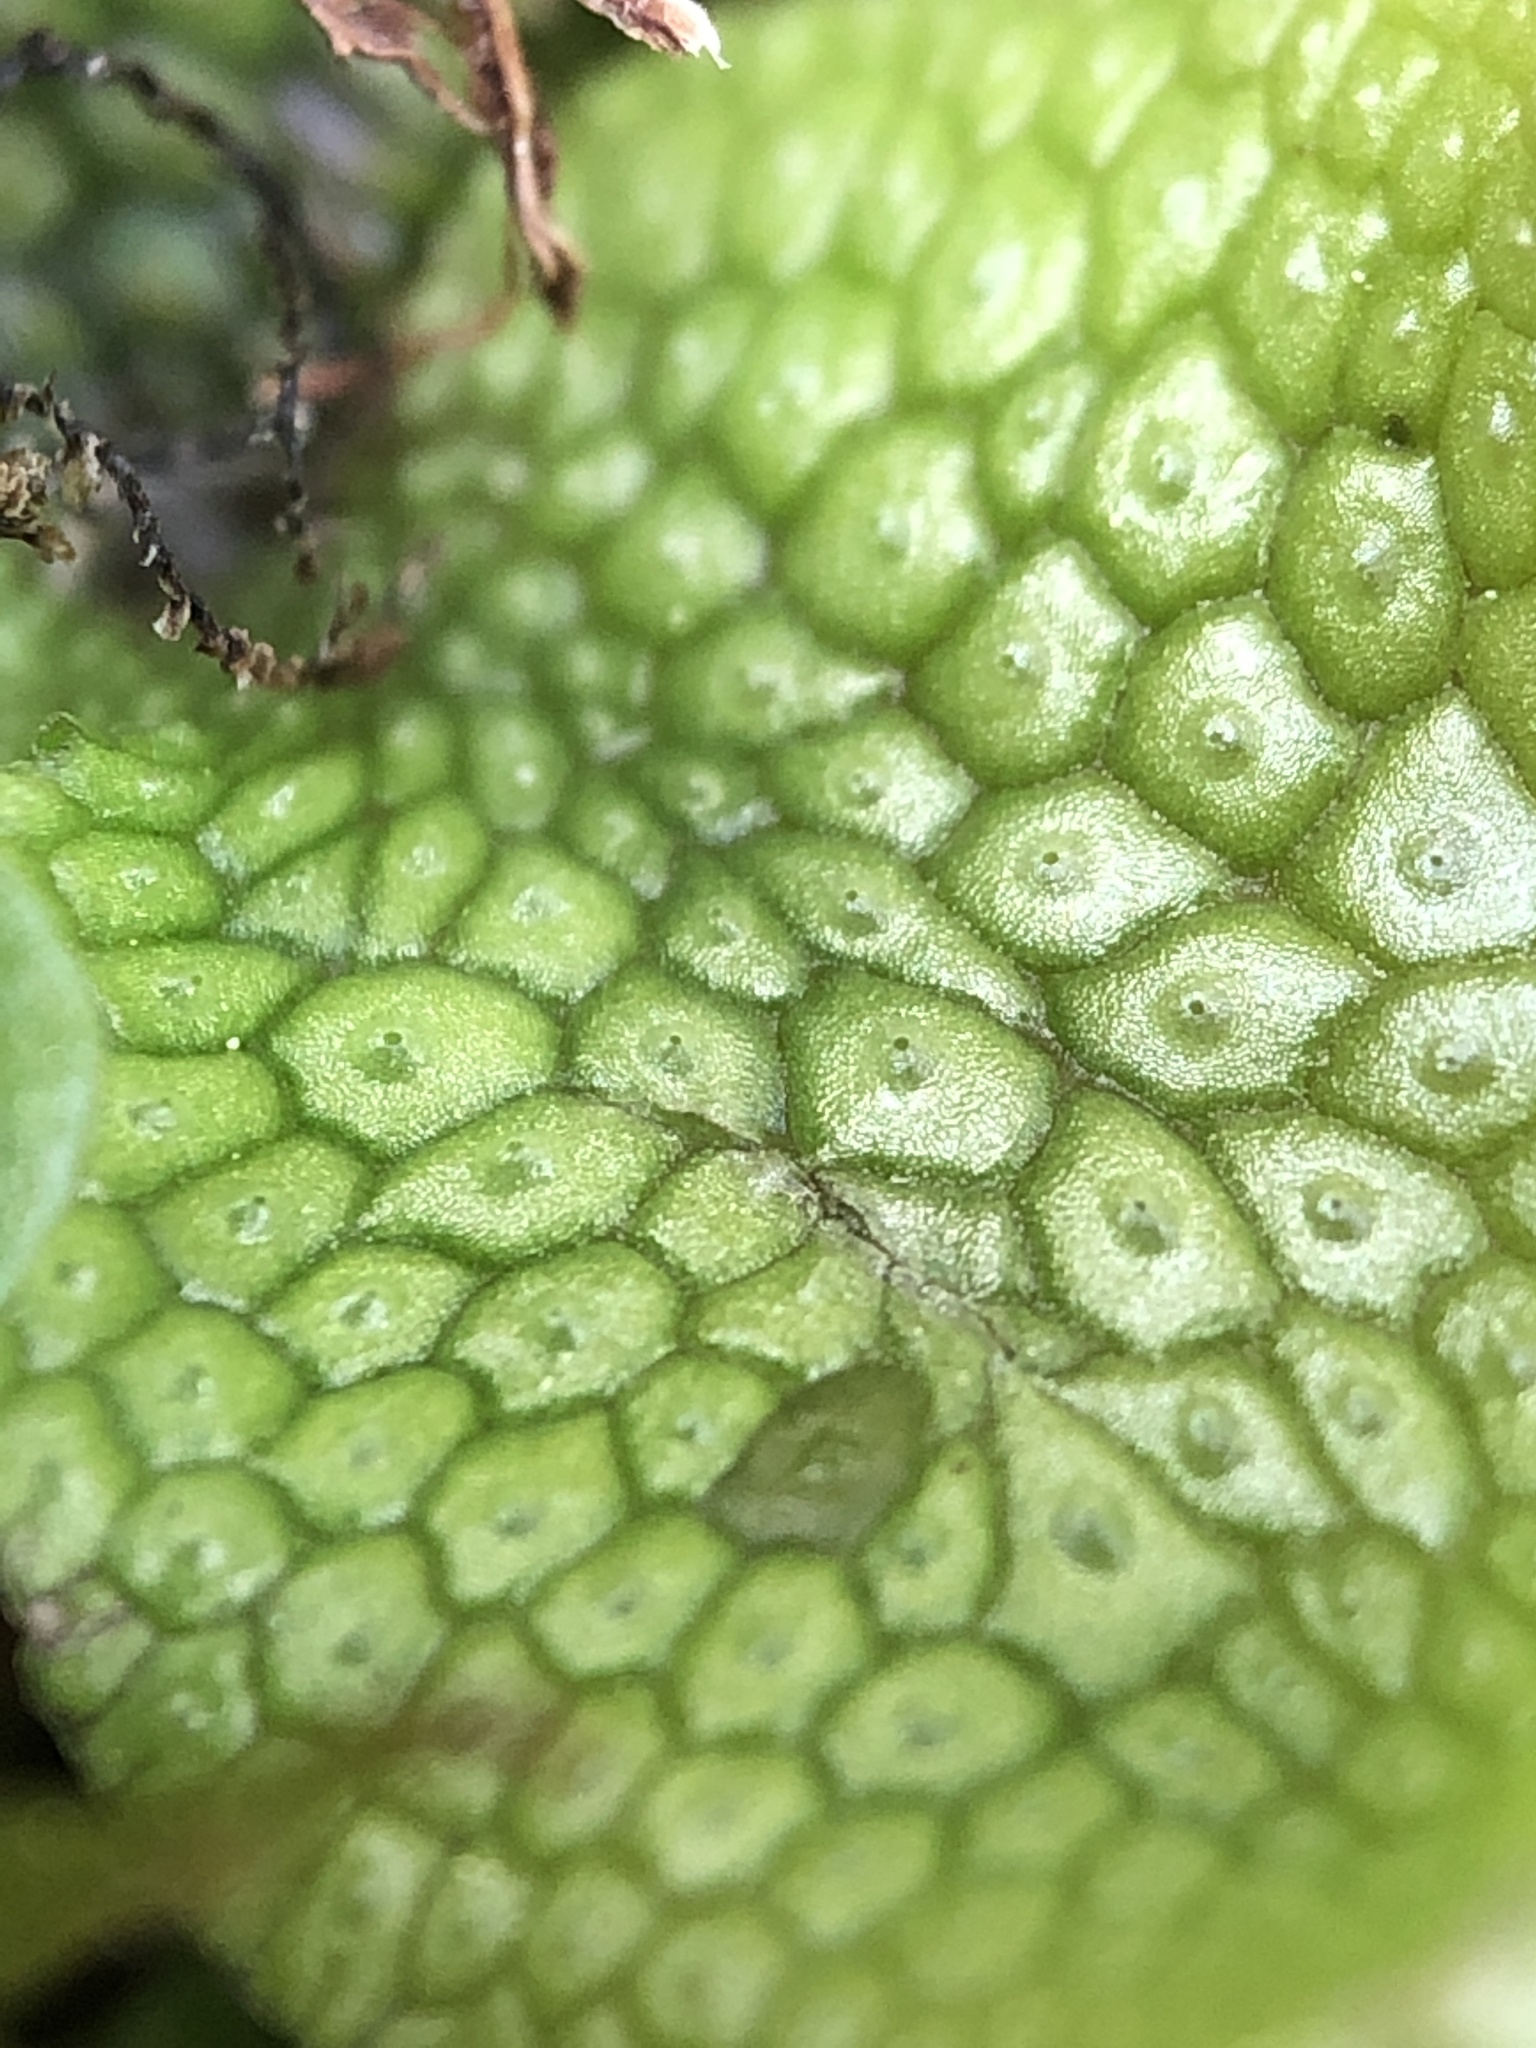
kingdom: Plantae
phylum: Marchantiophyta
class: Marchantiopsida
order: Marchantiales
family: Conocephalaceae
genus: Conocephalum
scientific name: Conocephalum salebrosum
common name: Cat-tongue liverwort
